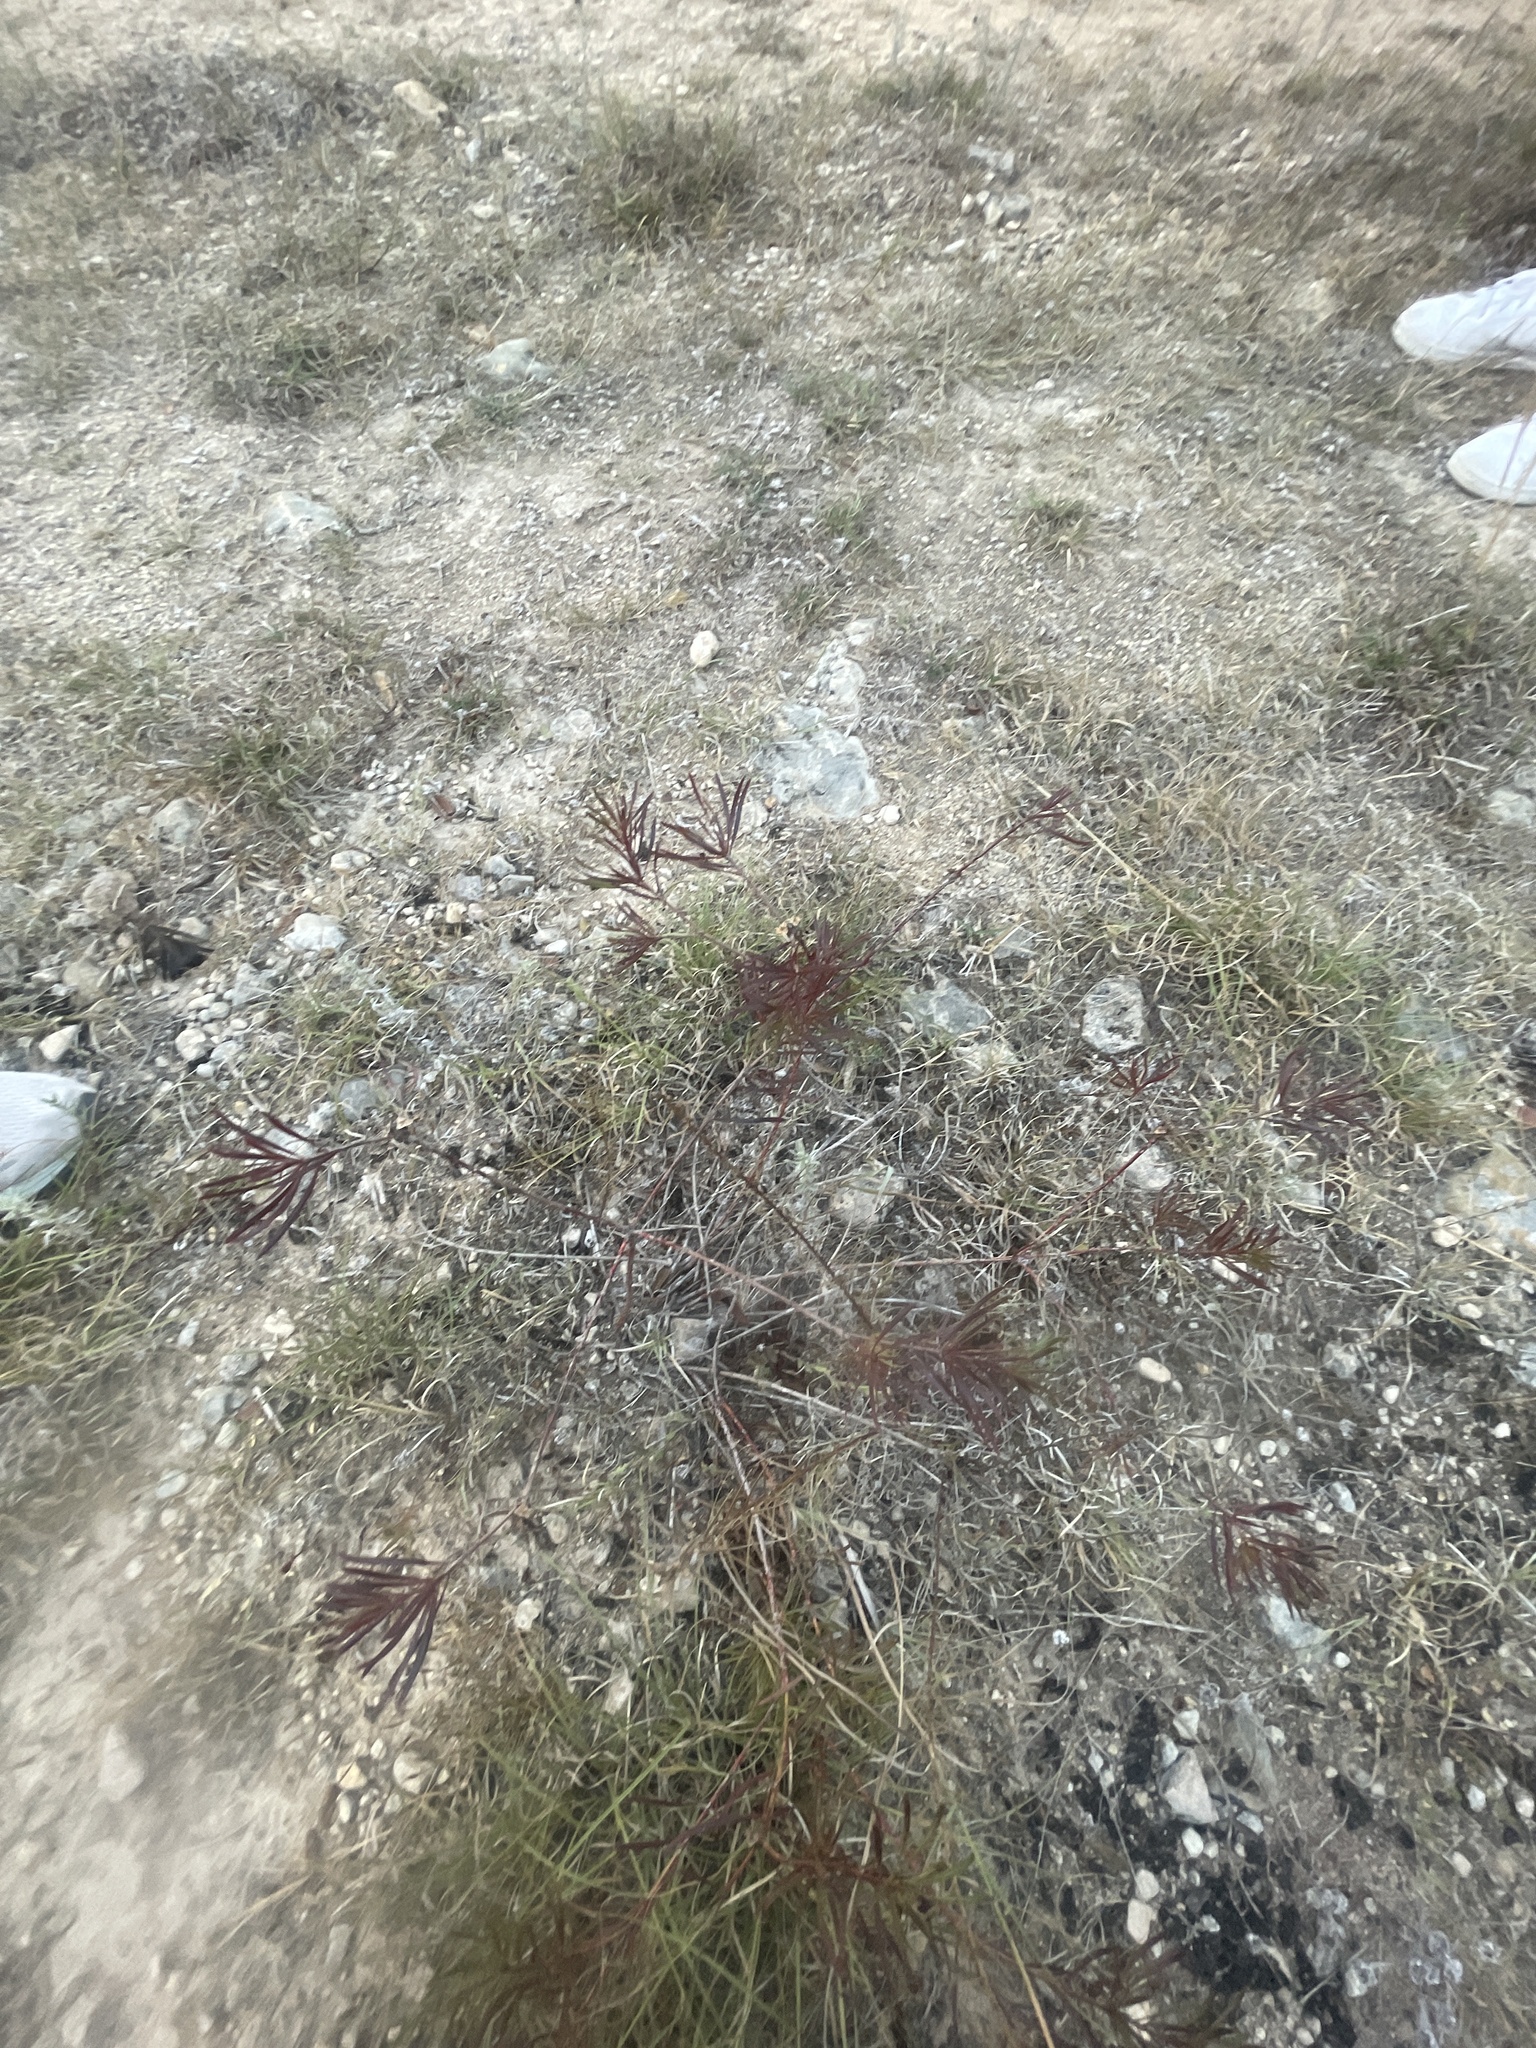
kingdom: Plantae
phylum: Tracheophyta
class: Magnoliopsida
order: Malpighiales
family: Euphorbiaceae
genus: Stillingia
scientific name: Stillingia texana
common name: Texas stillingia
